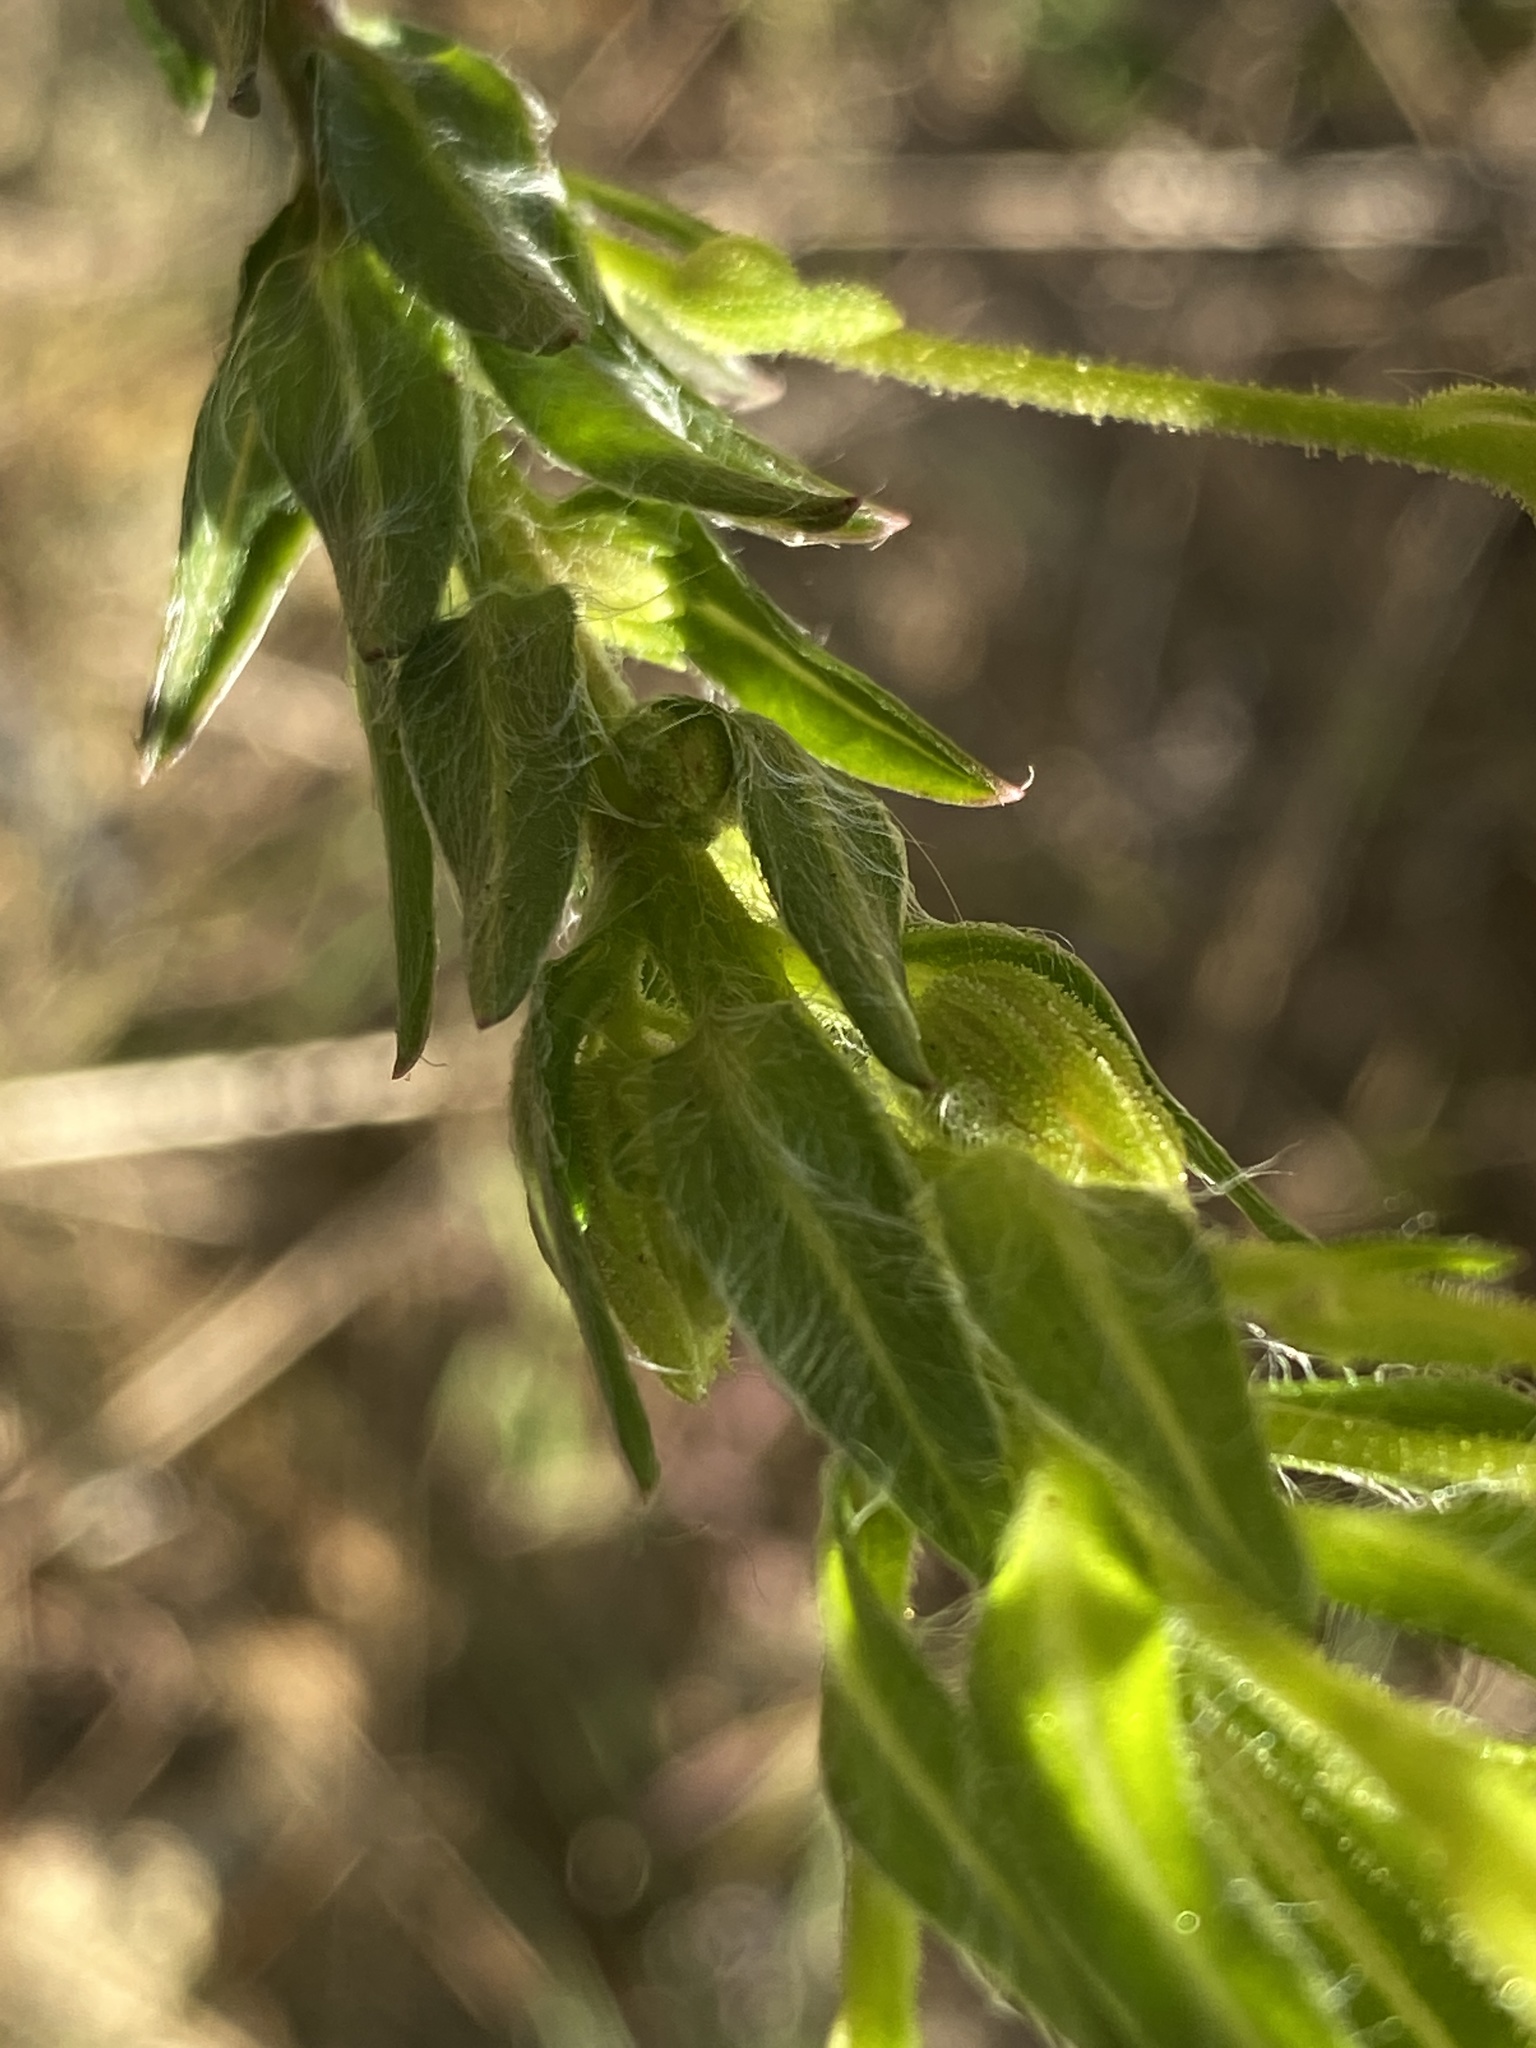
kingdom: Plantae
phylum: Tracheophyta
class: Magnoliopsida
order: Asterales
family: Asteraceae
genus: Chrysopsis
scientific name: Chrysopsis mariana
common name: Maryland golden-aster
